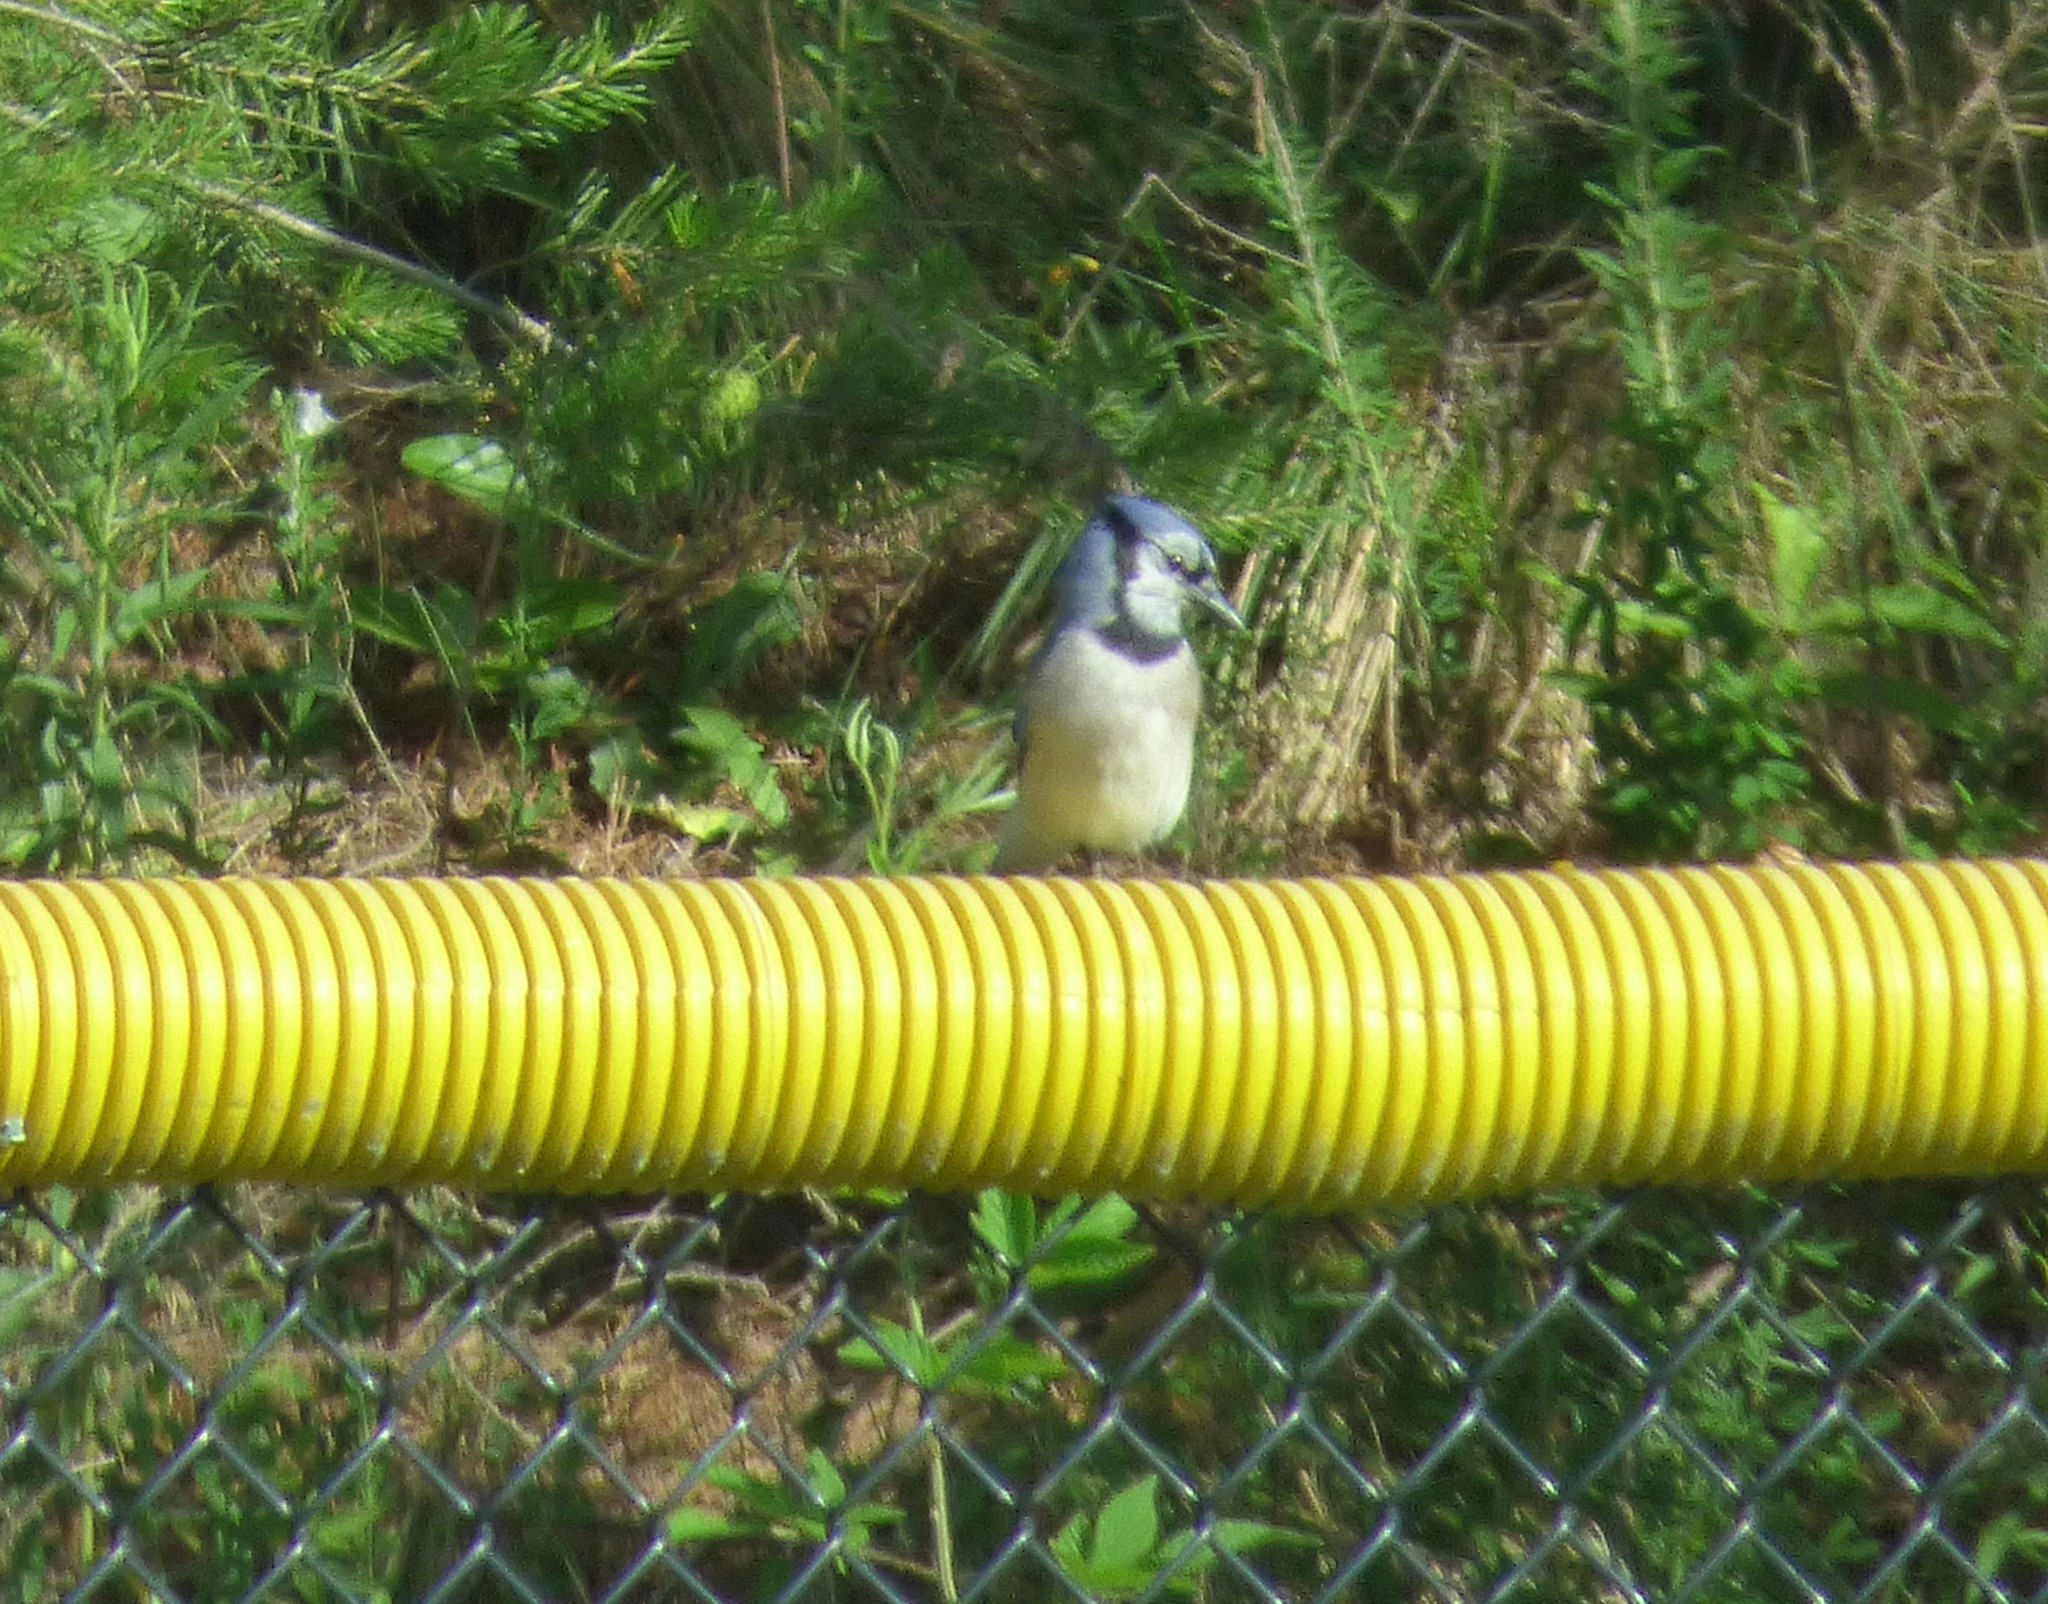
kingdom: Animalia
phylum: Chordata
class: Aves
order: Passeriformes
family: Corvidae
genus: Cyanocitta
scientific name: Cyanocitta cristata
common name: Blue jay
